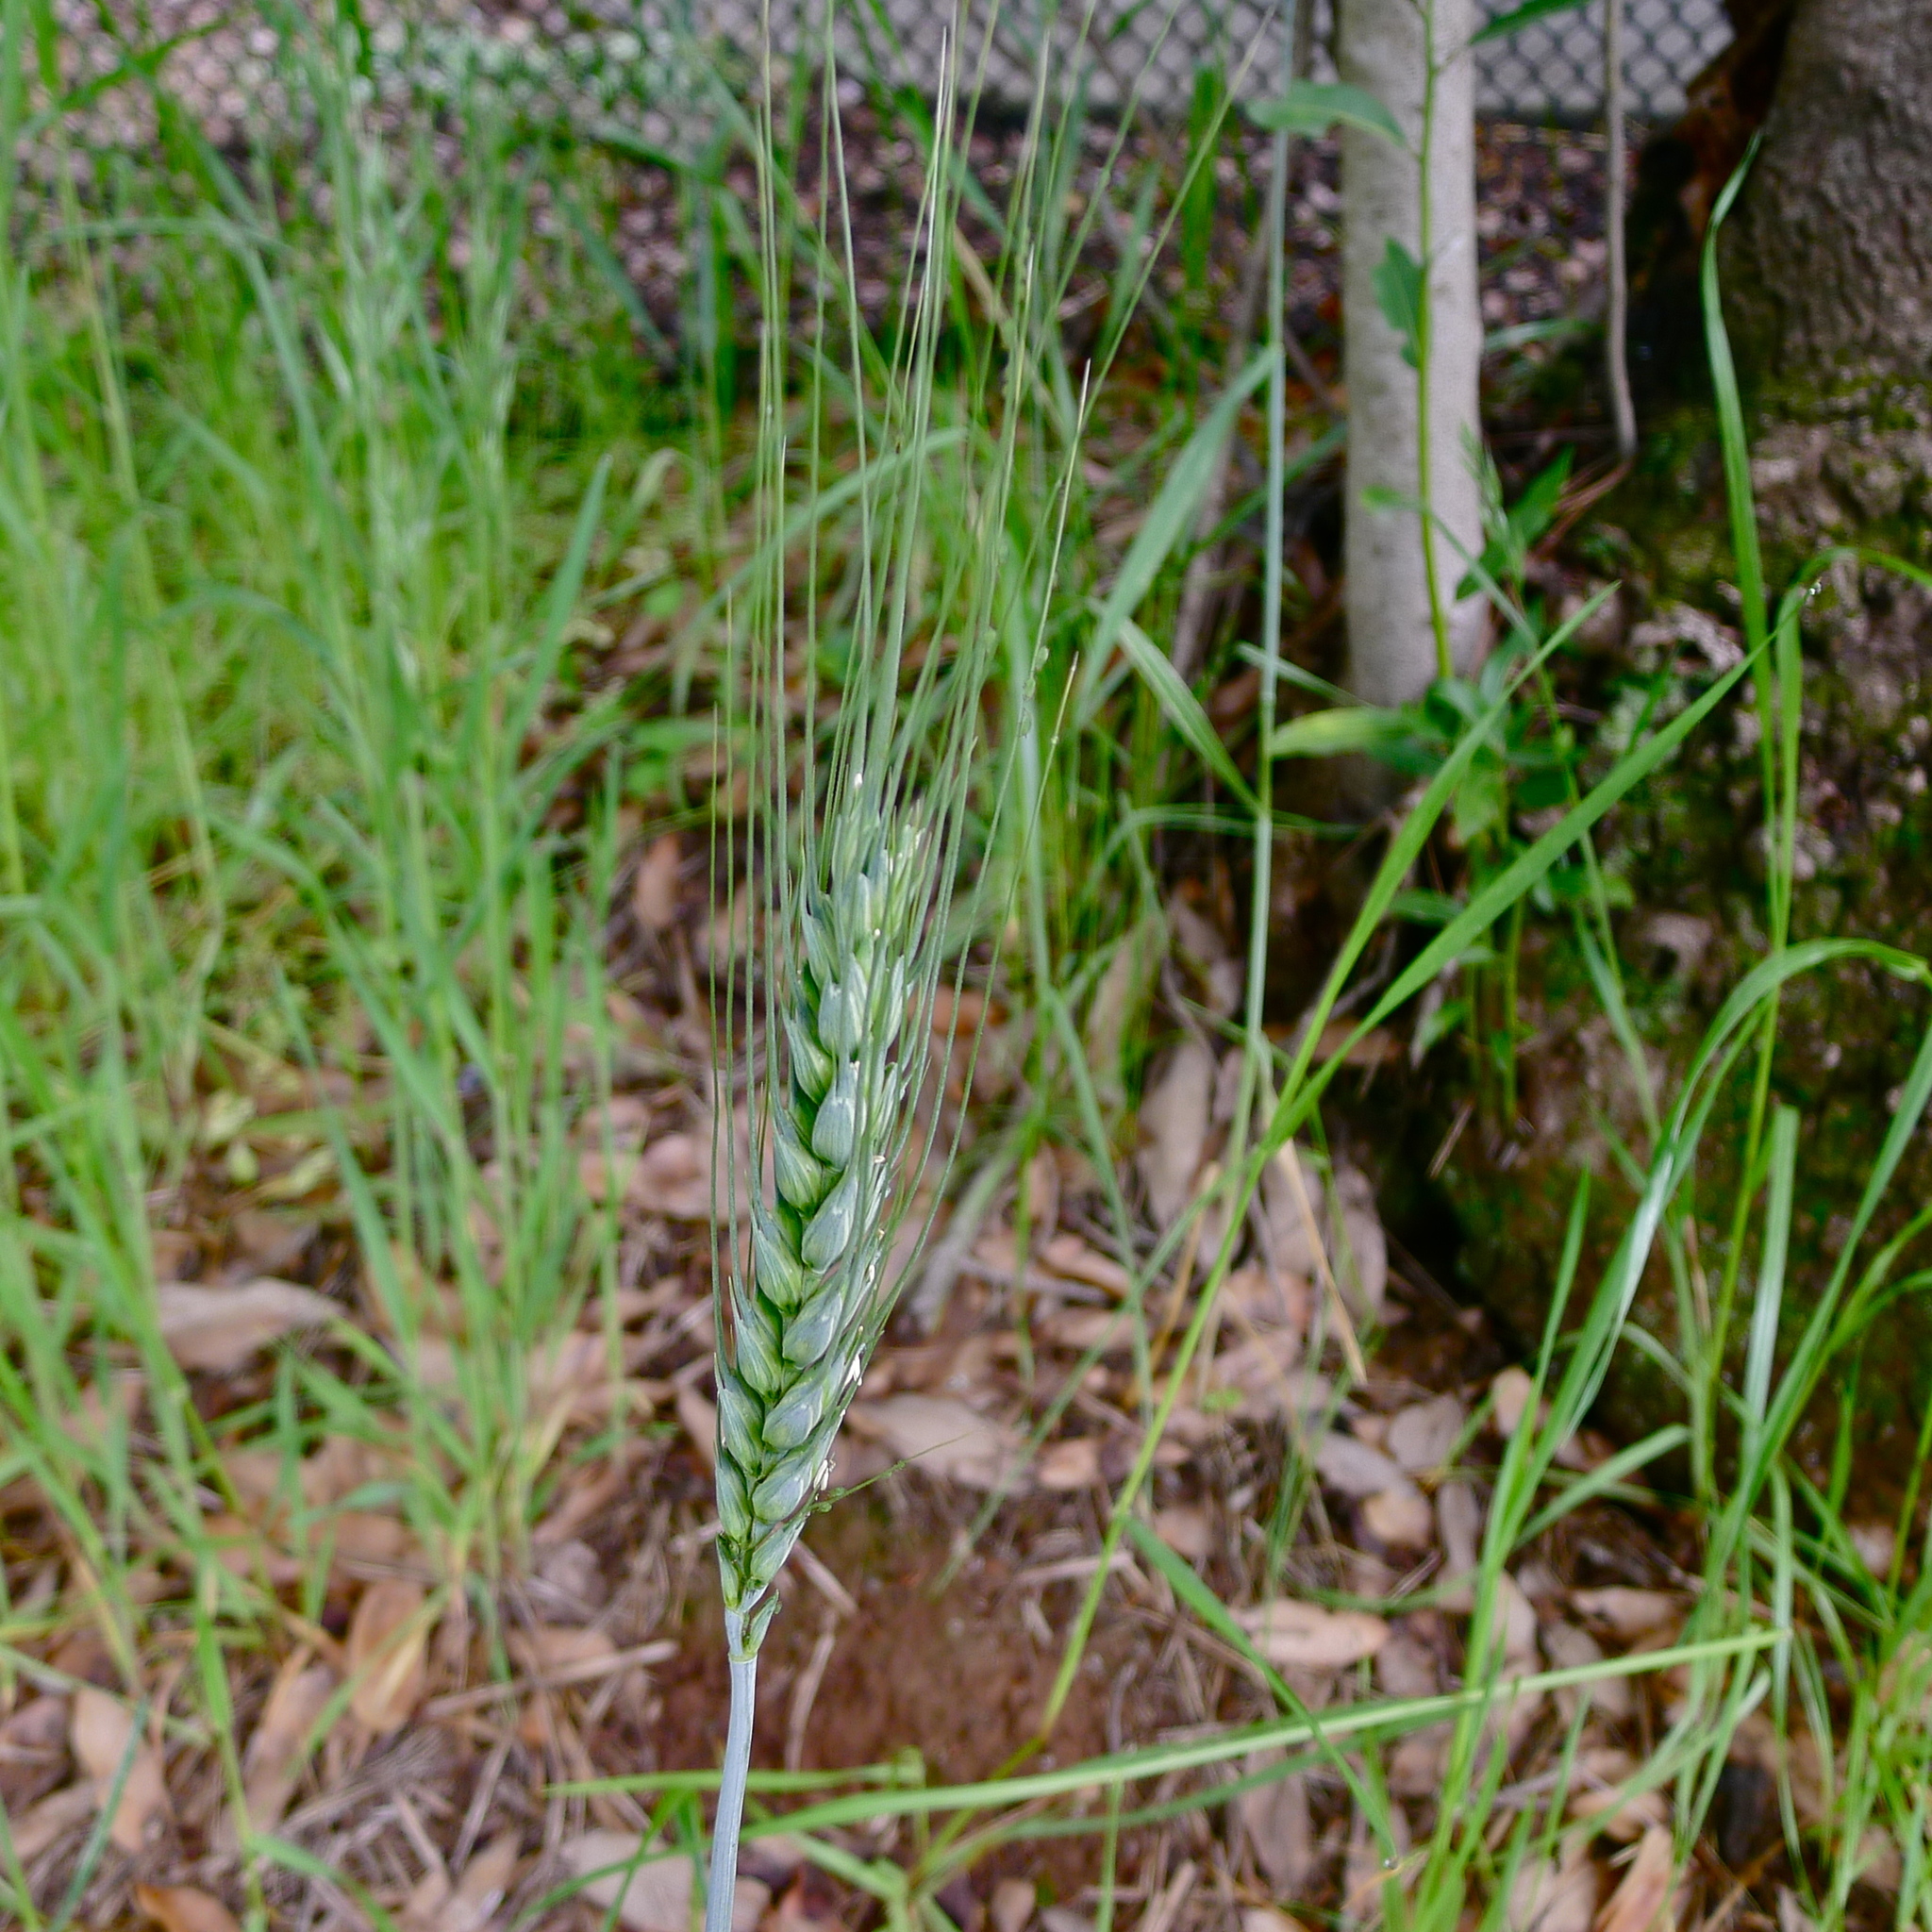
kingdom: Plantae
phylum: Tracheophyta
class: Liliopsida
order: Poales
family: Poaceae
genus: Triticum
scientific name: Triticum aestivum
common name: Common wheat
